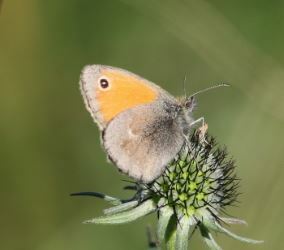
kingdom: Animalia
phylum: Arthropoda
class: Insecta
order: Lepidoptera
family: Nymphalidae
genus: Coenonympha
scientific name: Coenonympha pamphilus
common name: Small heath
